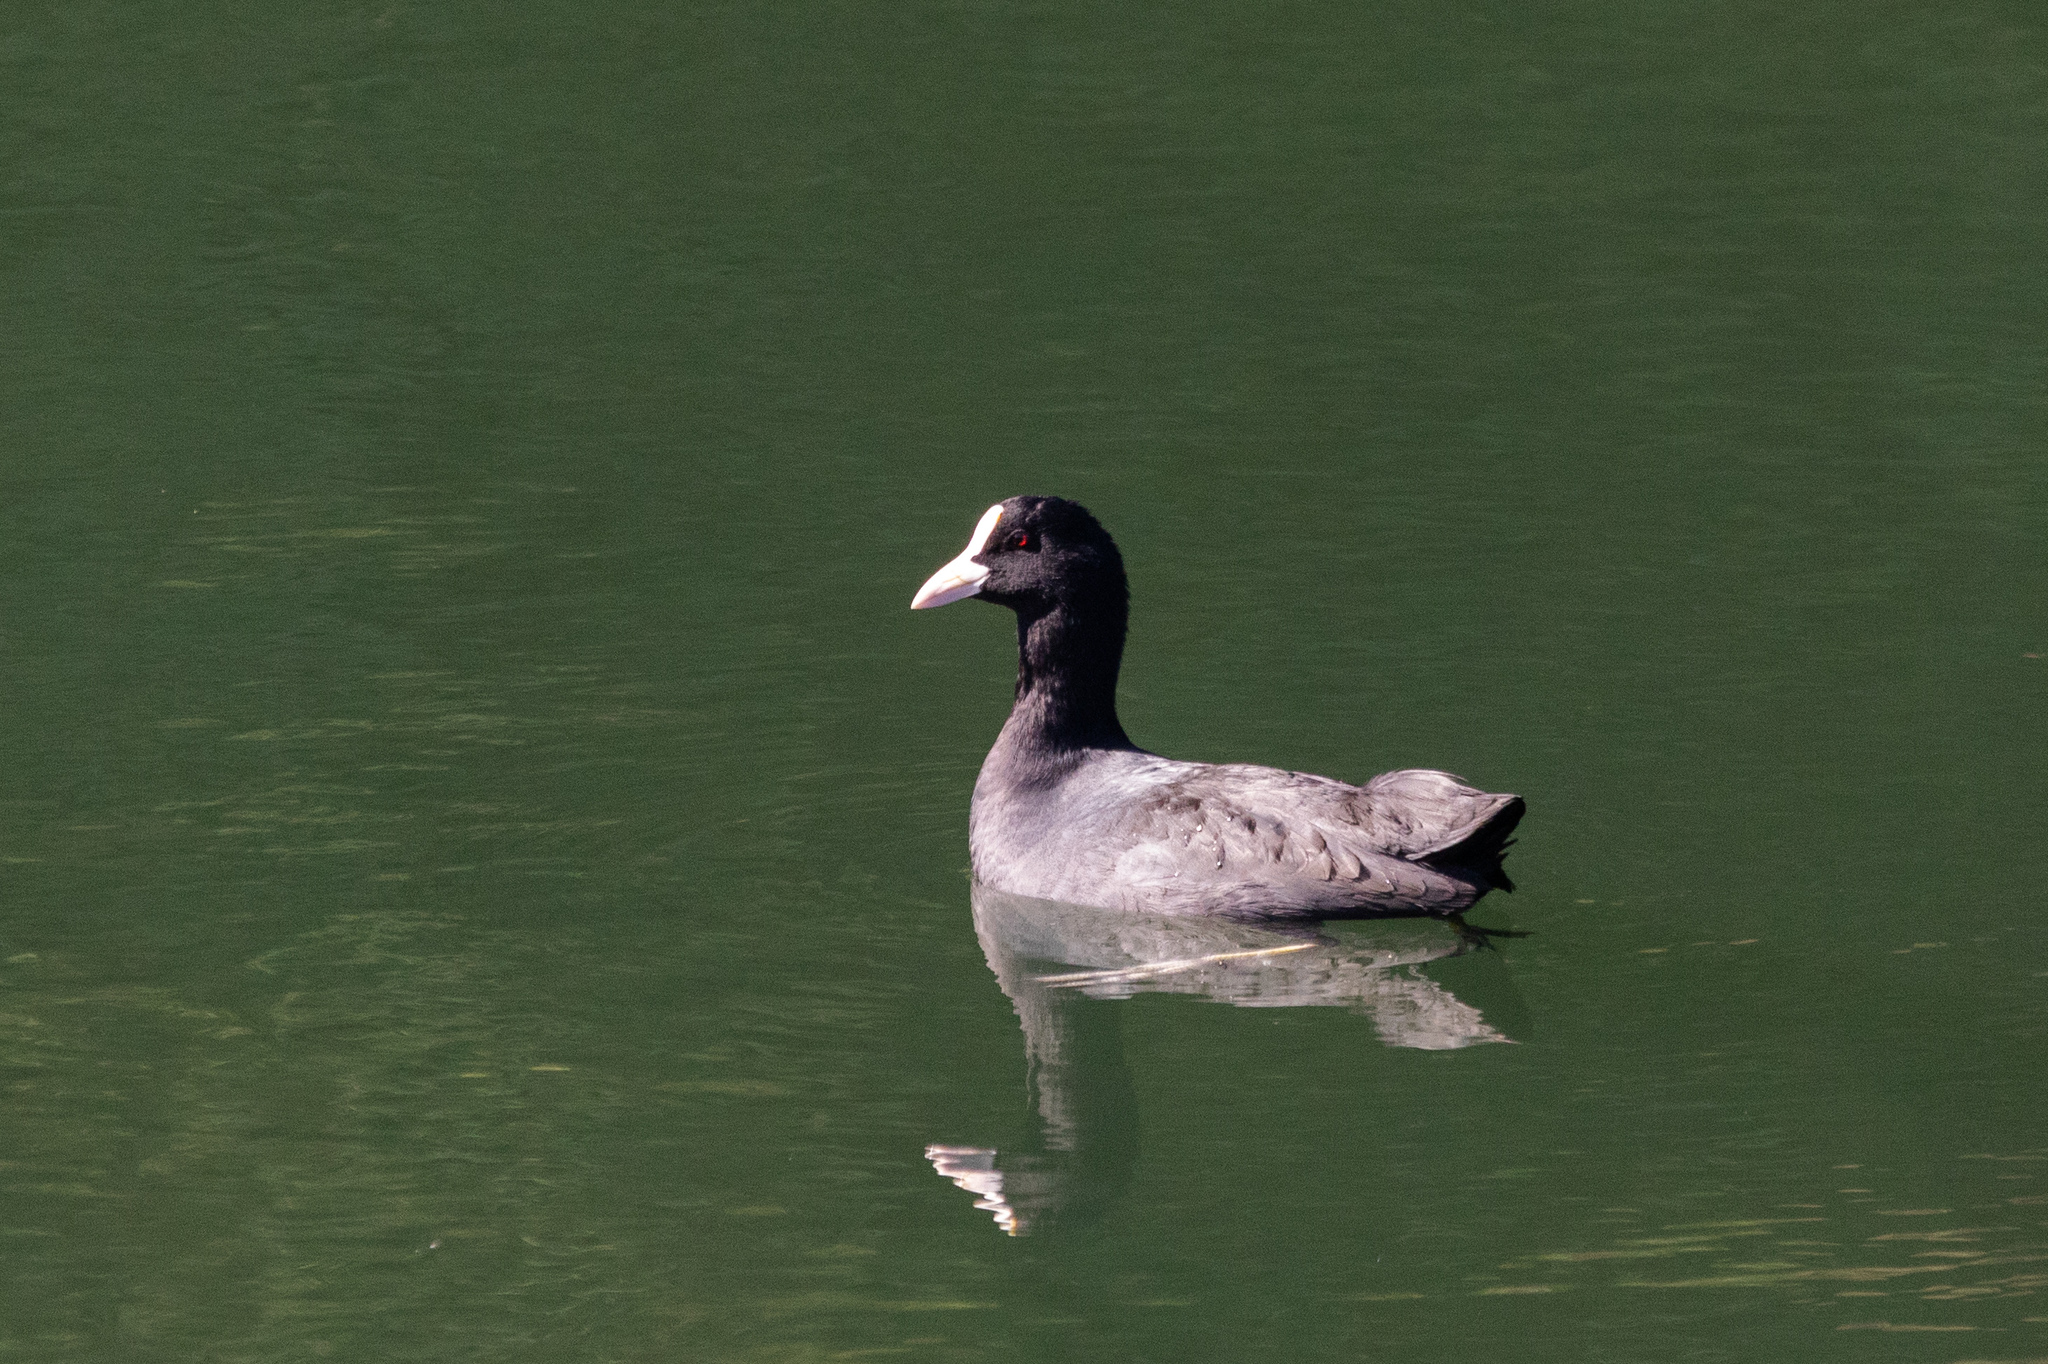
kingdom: Animalia
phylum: Chordata
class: Aves
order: Gruiformes
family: Rallidae
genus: Fulica
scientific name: Fulica atra
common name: Eurasian coot
